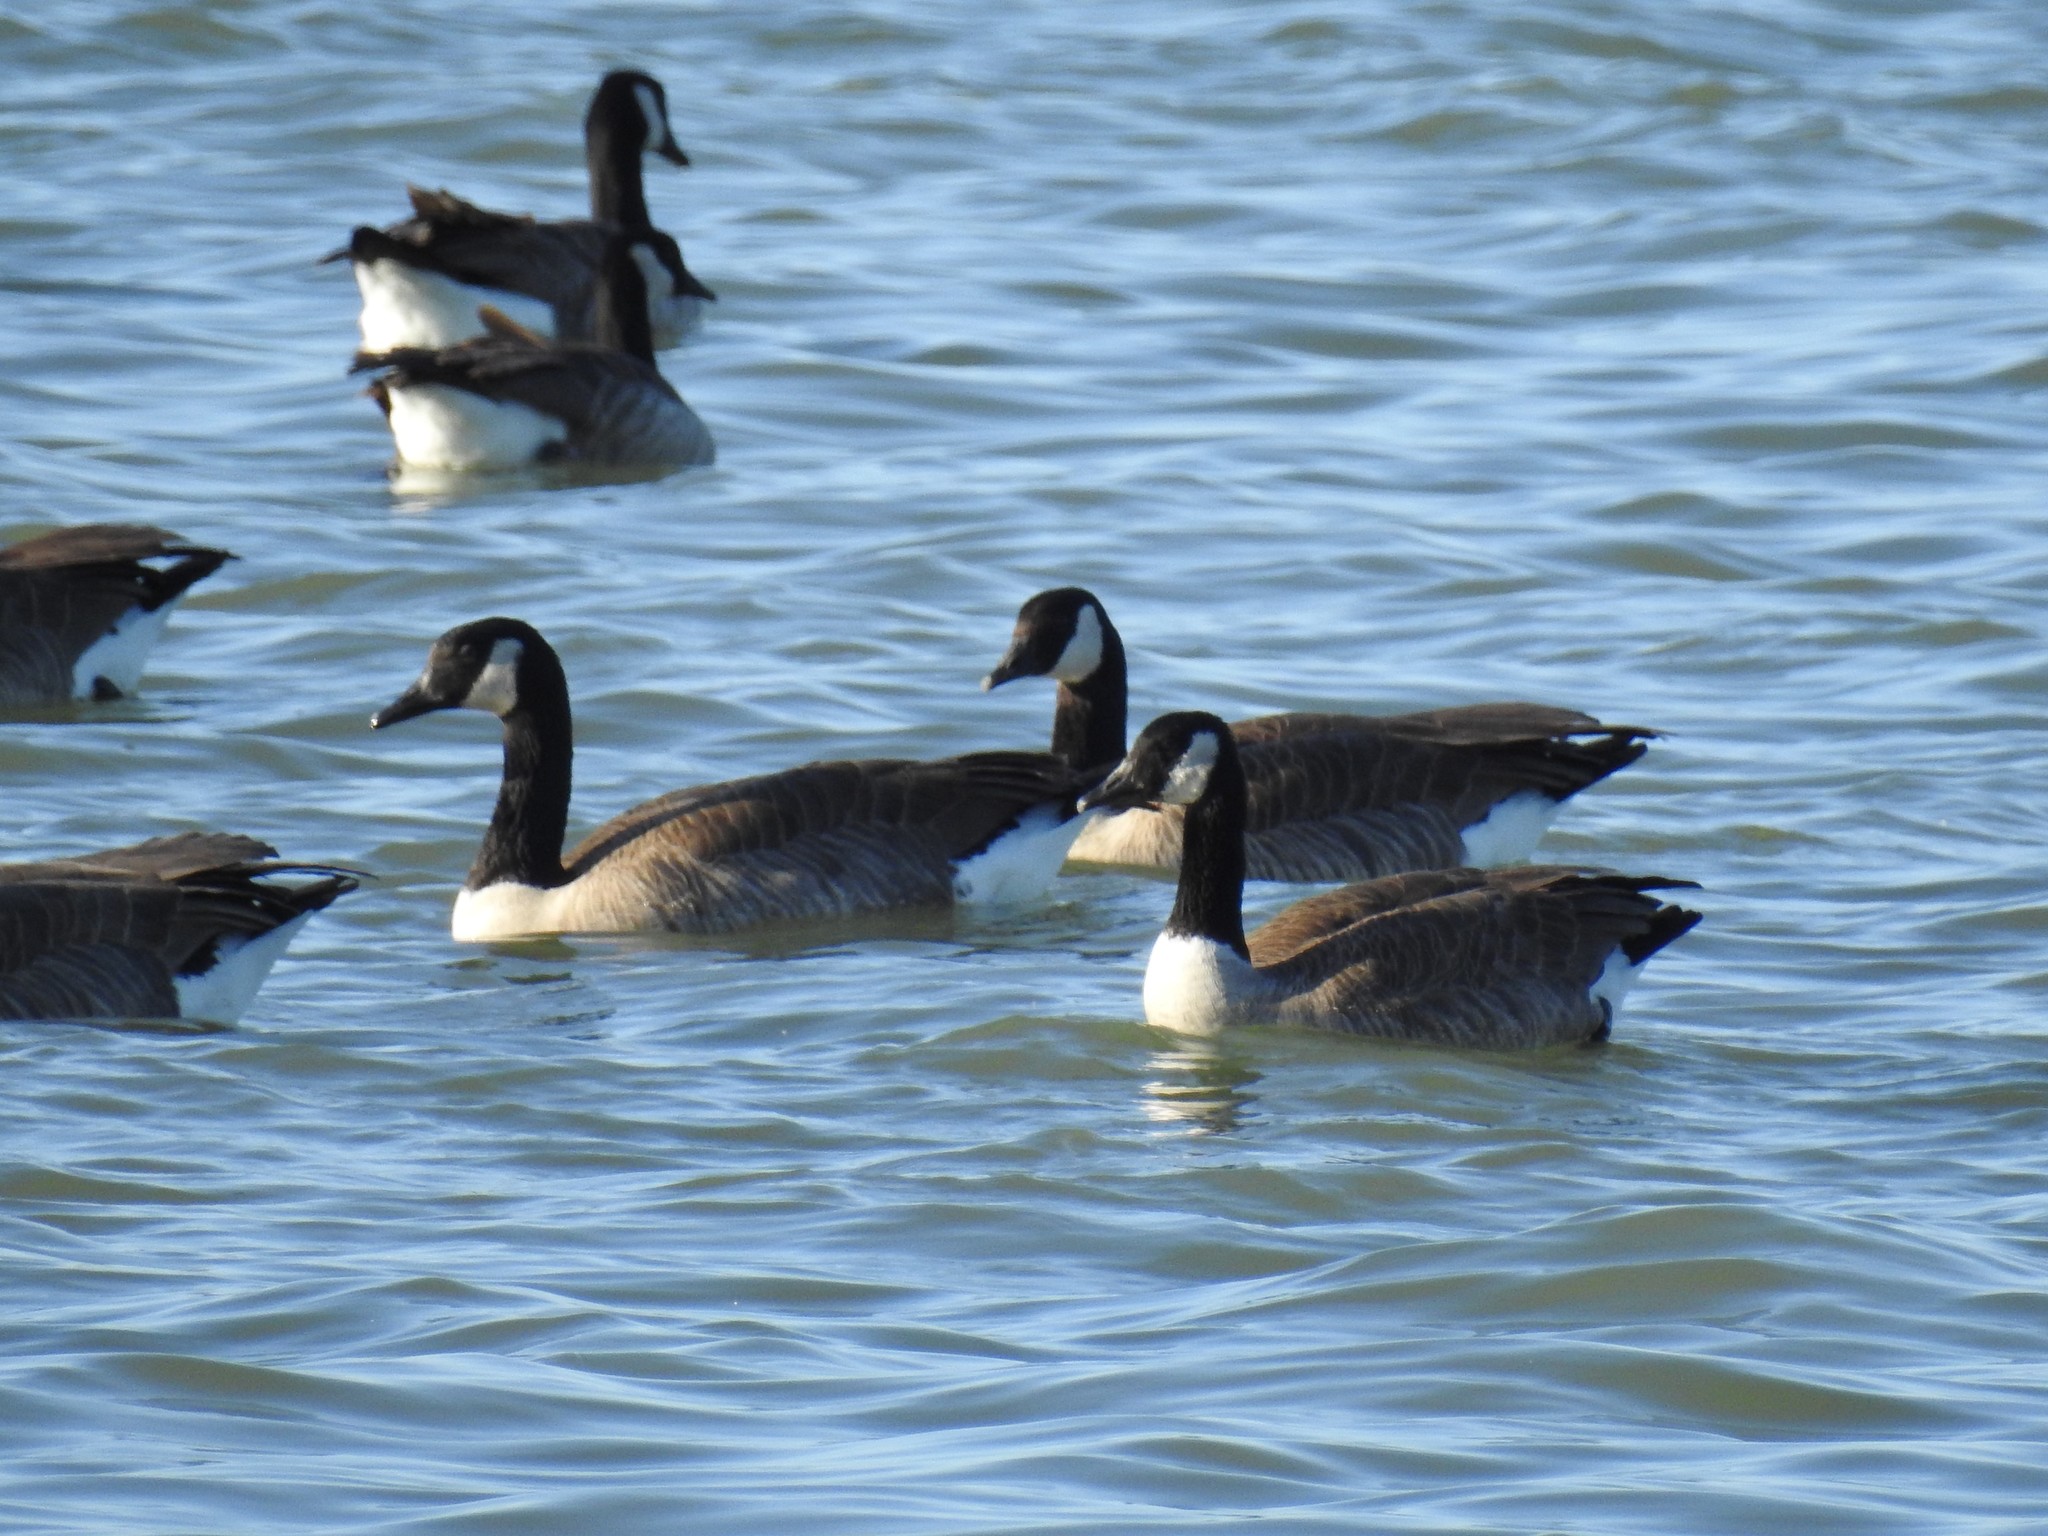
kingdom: Animalia
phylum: Chordata
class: Aves
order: Anseriformes
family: Anatidae
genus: Branta
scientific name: Branta canadensis
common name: Canada goose
